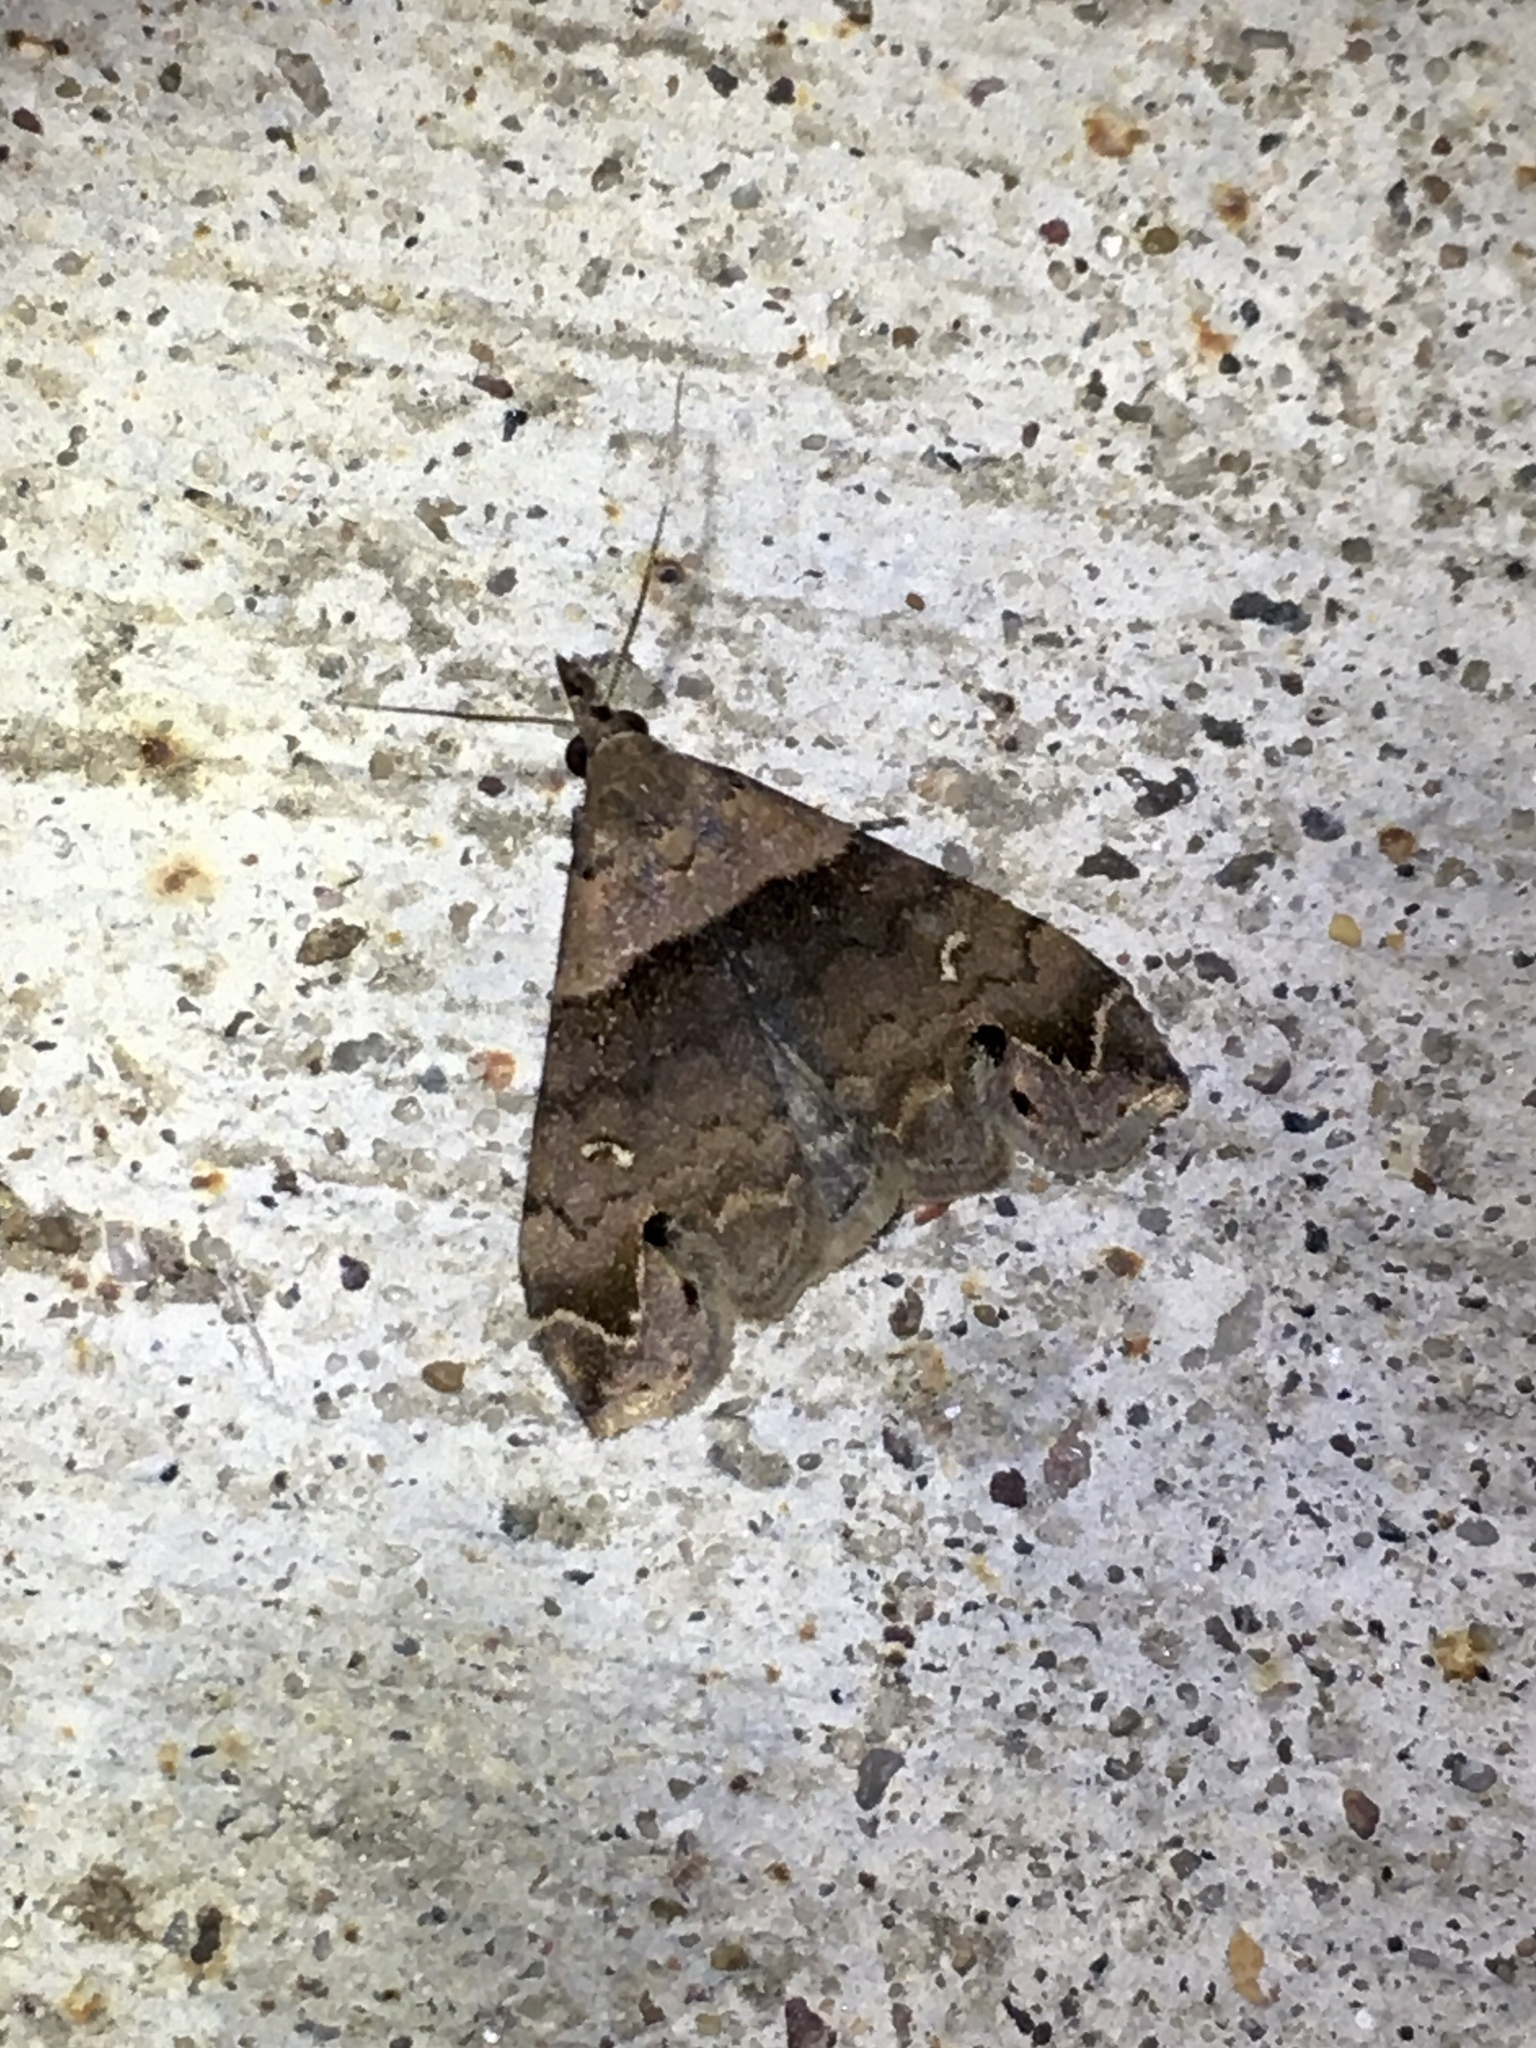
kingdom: Animalia
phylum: Arthropoda
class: Insecta
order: Lepidoptera
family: Erebidae
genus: Lascoria
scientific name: Lascoria ambigualis
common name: Ambiguous moth
